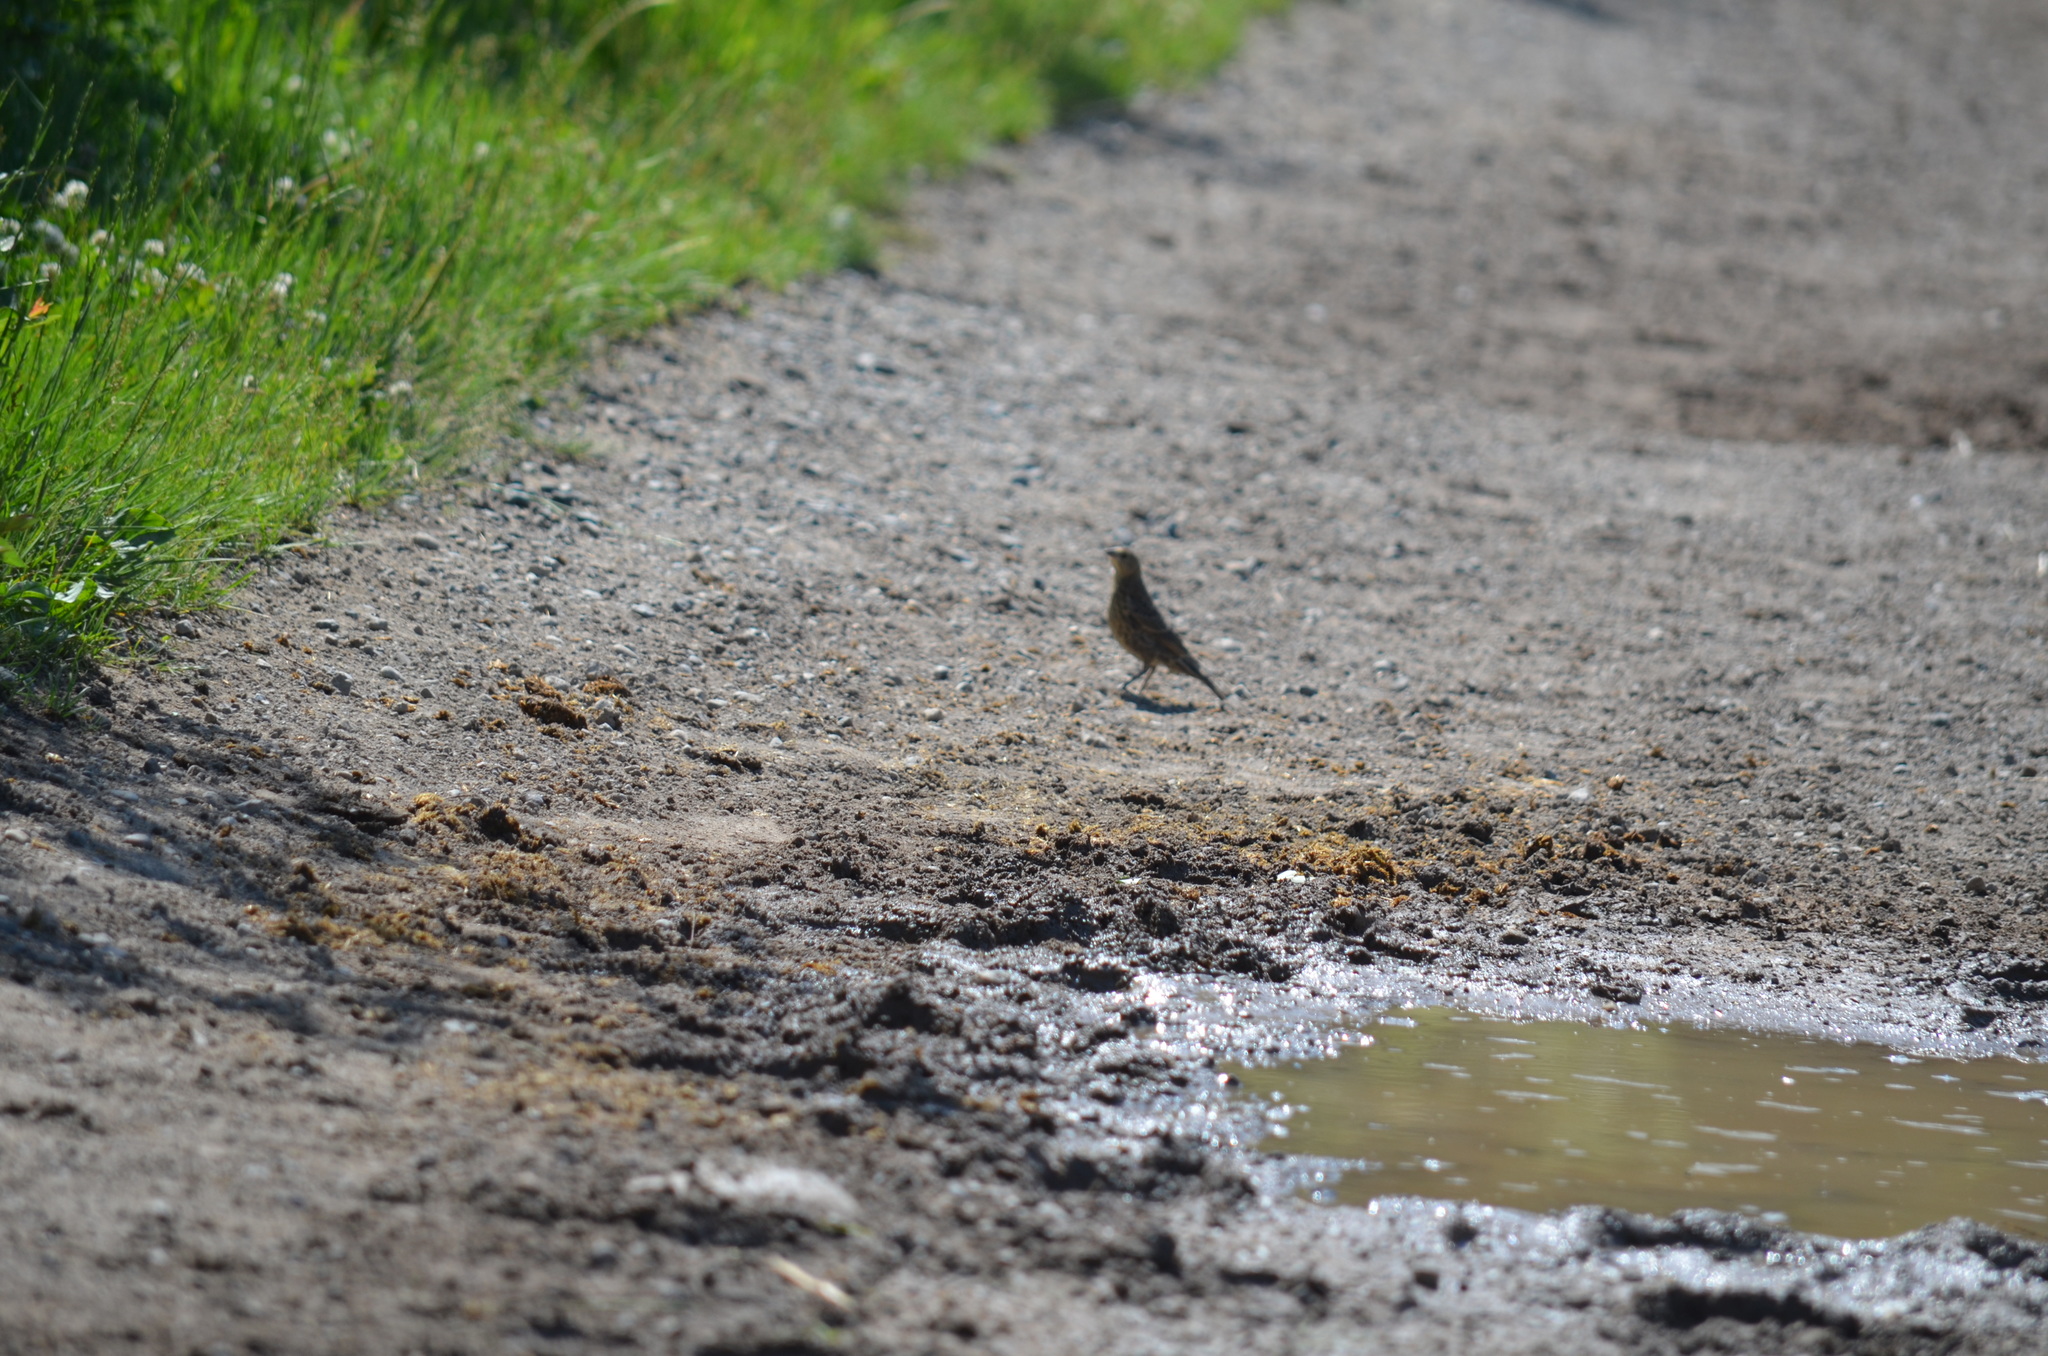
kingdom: Animalia
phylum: Chordata
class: Aves
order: Passeriformes
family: Icteridae
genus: Molothrus
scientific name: Molothrus ater
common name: Brown-headed cowbird
